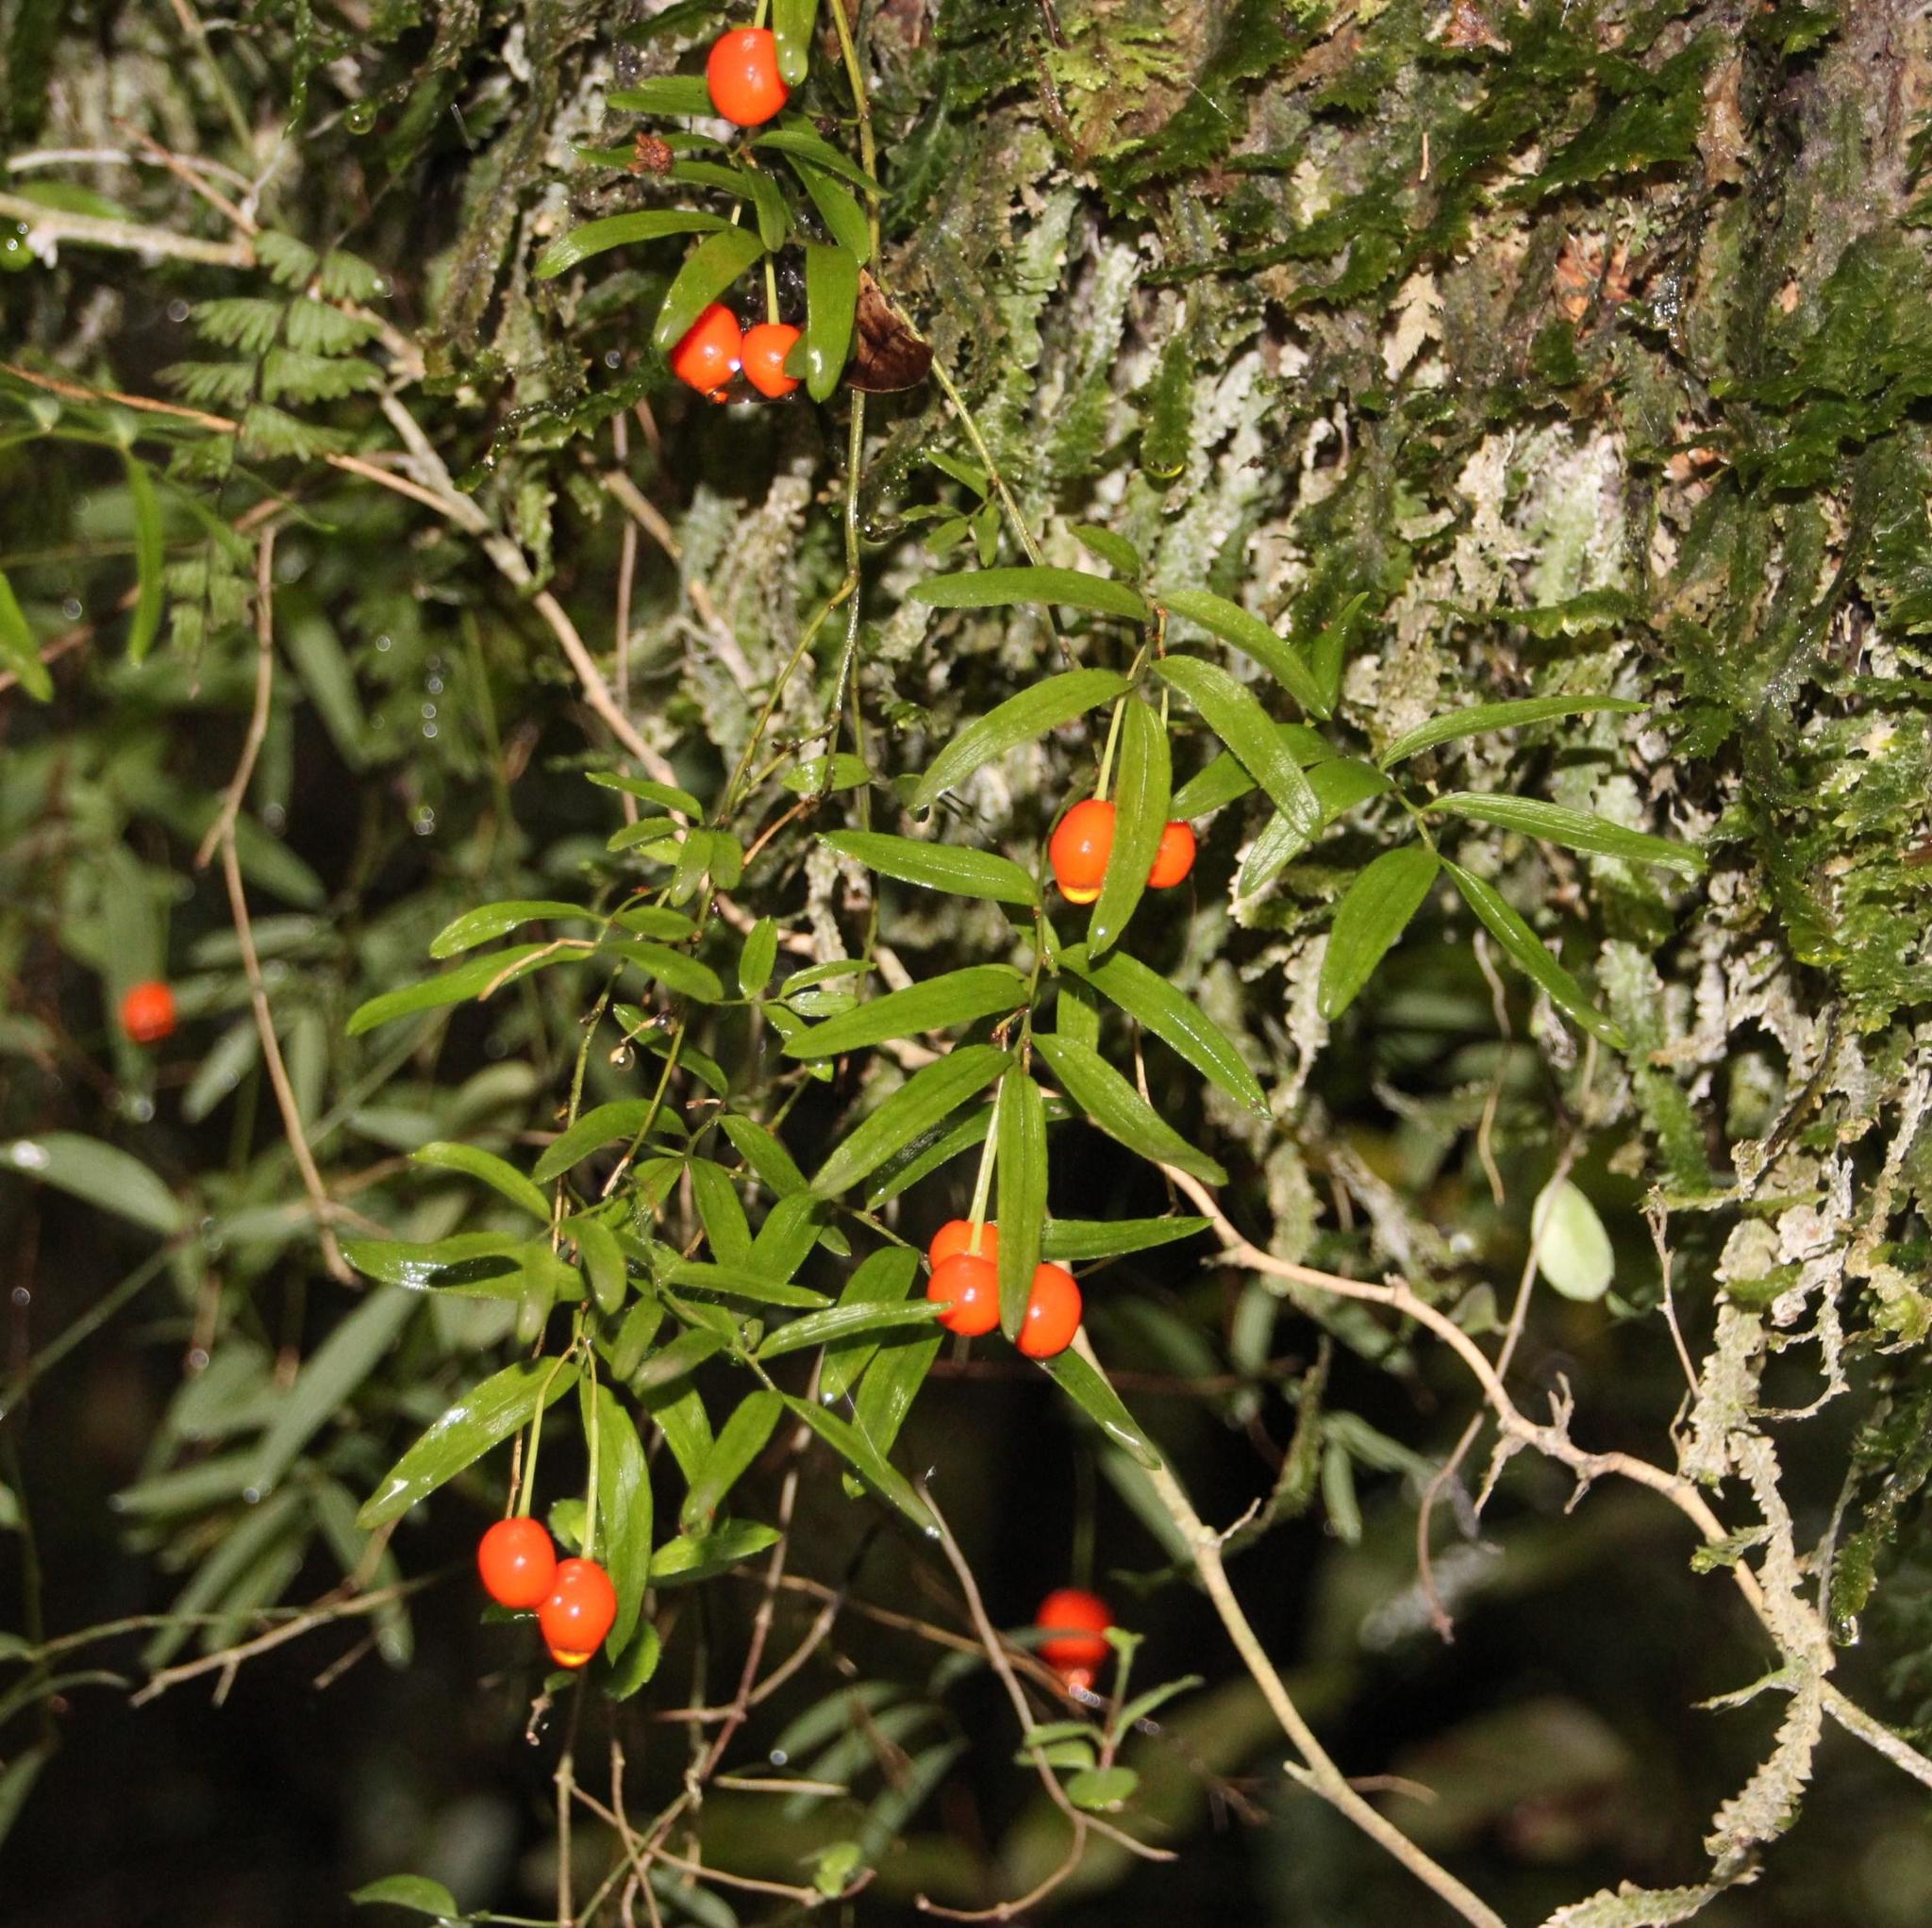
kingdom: Plantae
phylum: Tracheophyta
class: Liliopsida
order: Liliales
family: Alstroemeriaceae
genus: Luzuriaga
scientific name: Luzuriaga radicans
